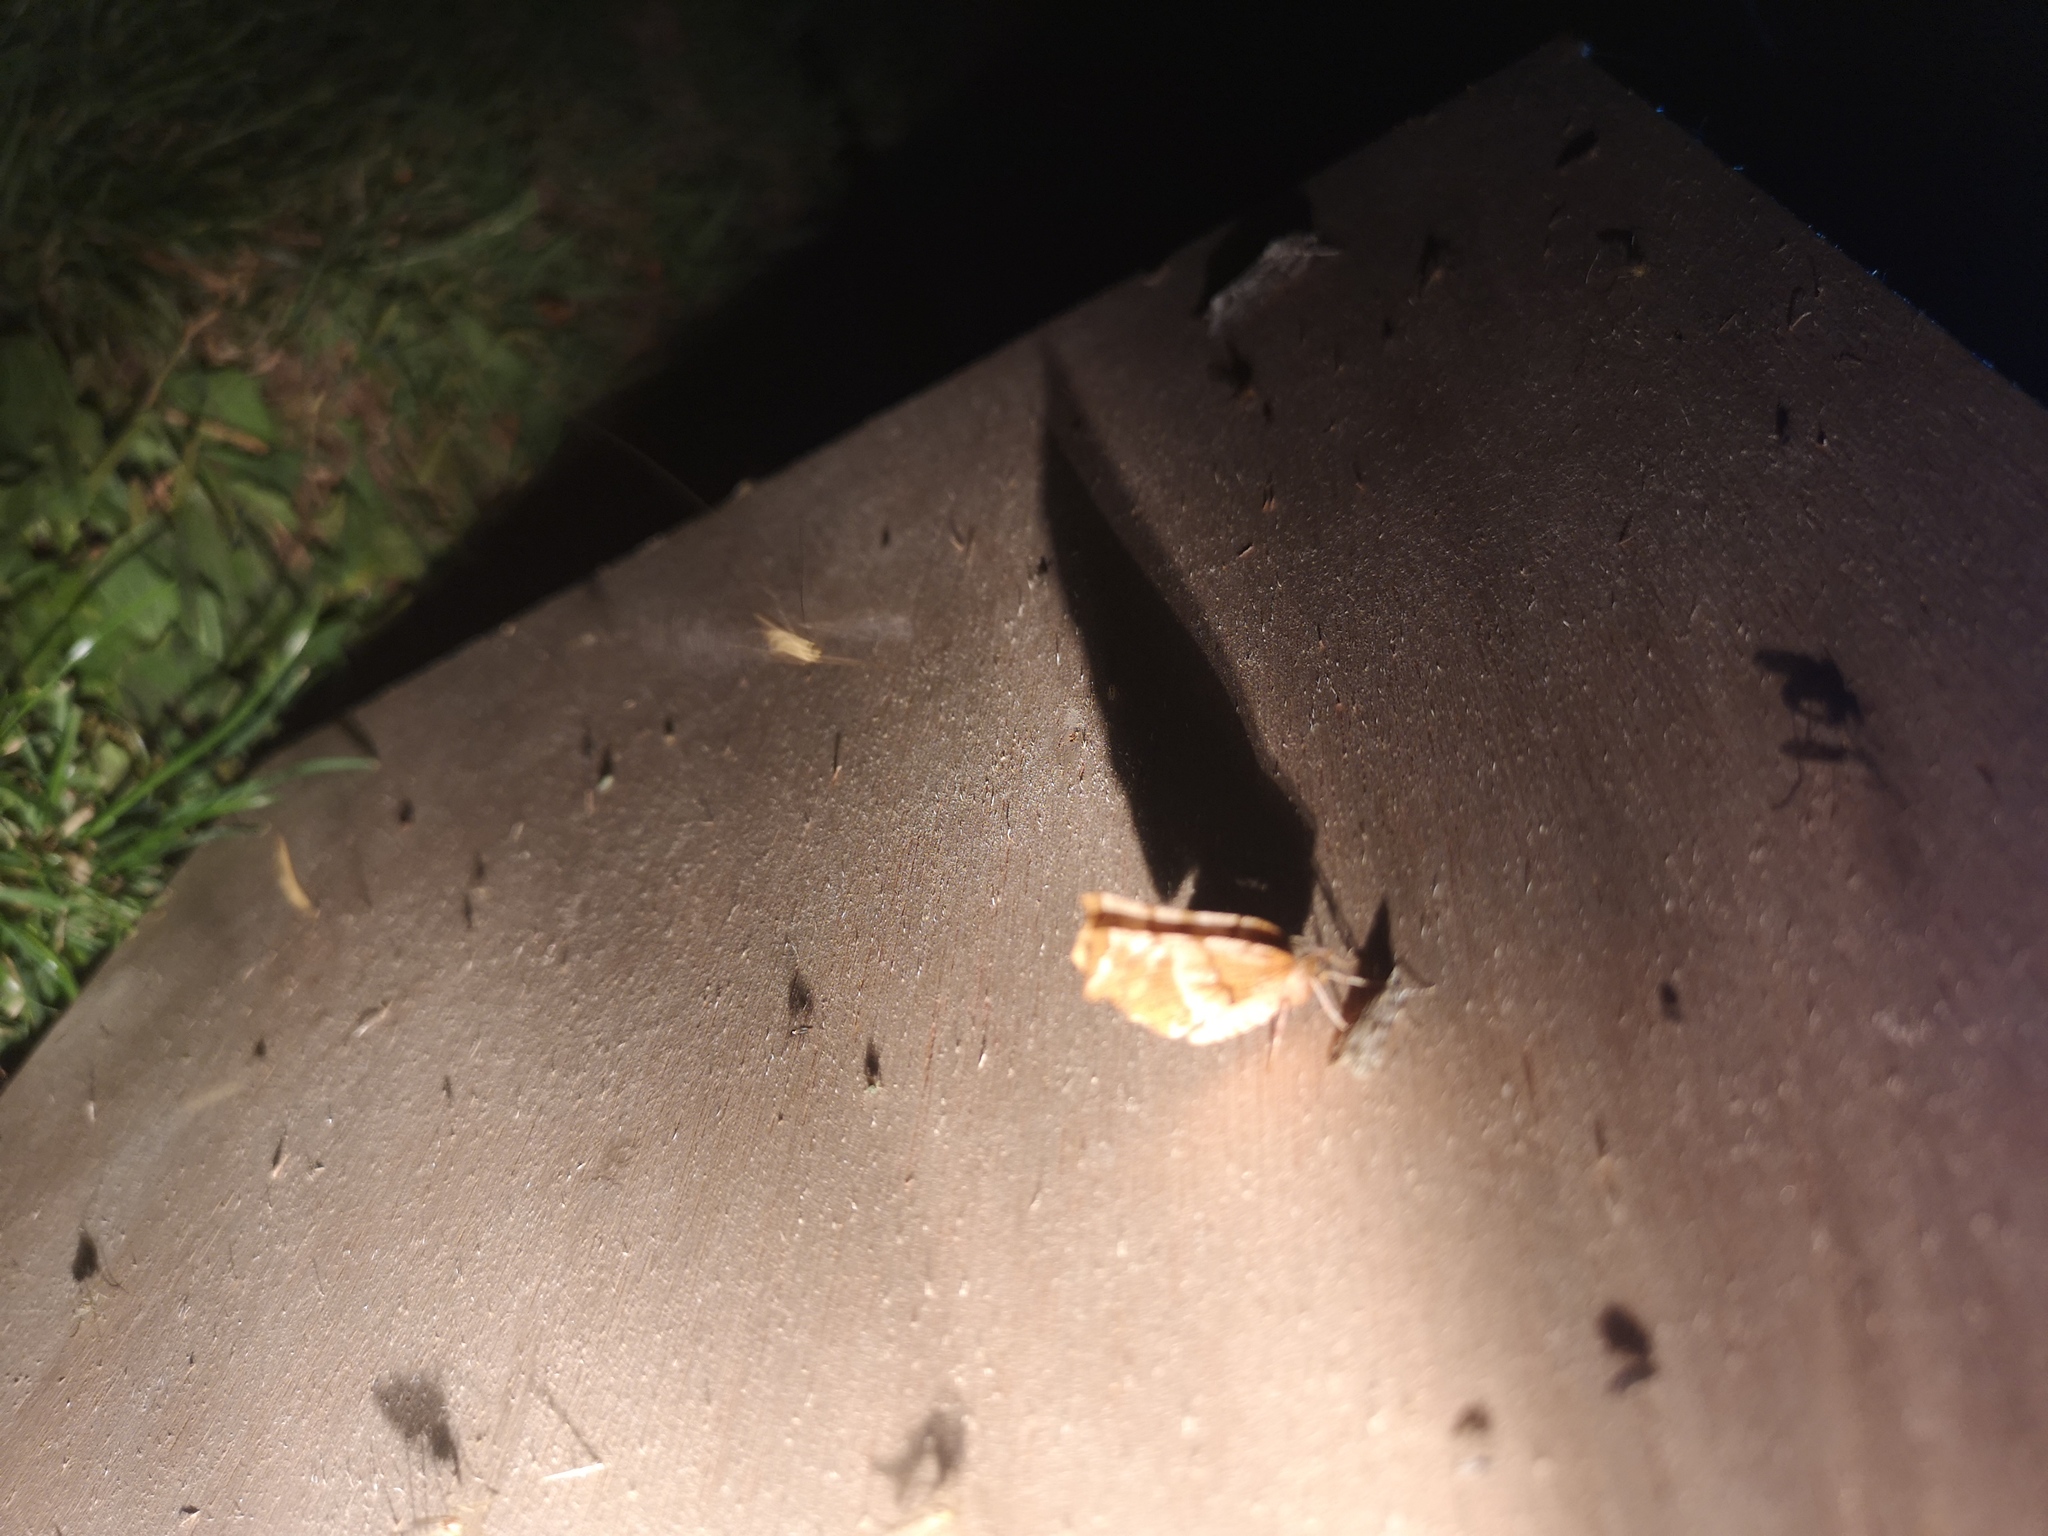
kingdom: Animalia
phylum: Arthropoda
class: Insecta
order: Lepidoptera
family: Geometridae
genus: Selenia
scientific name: Selenia dentaria
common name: Early thorn
